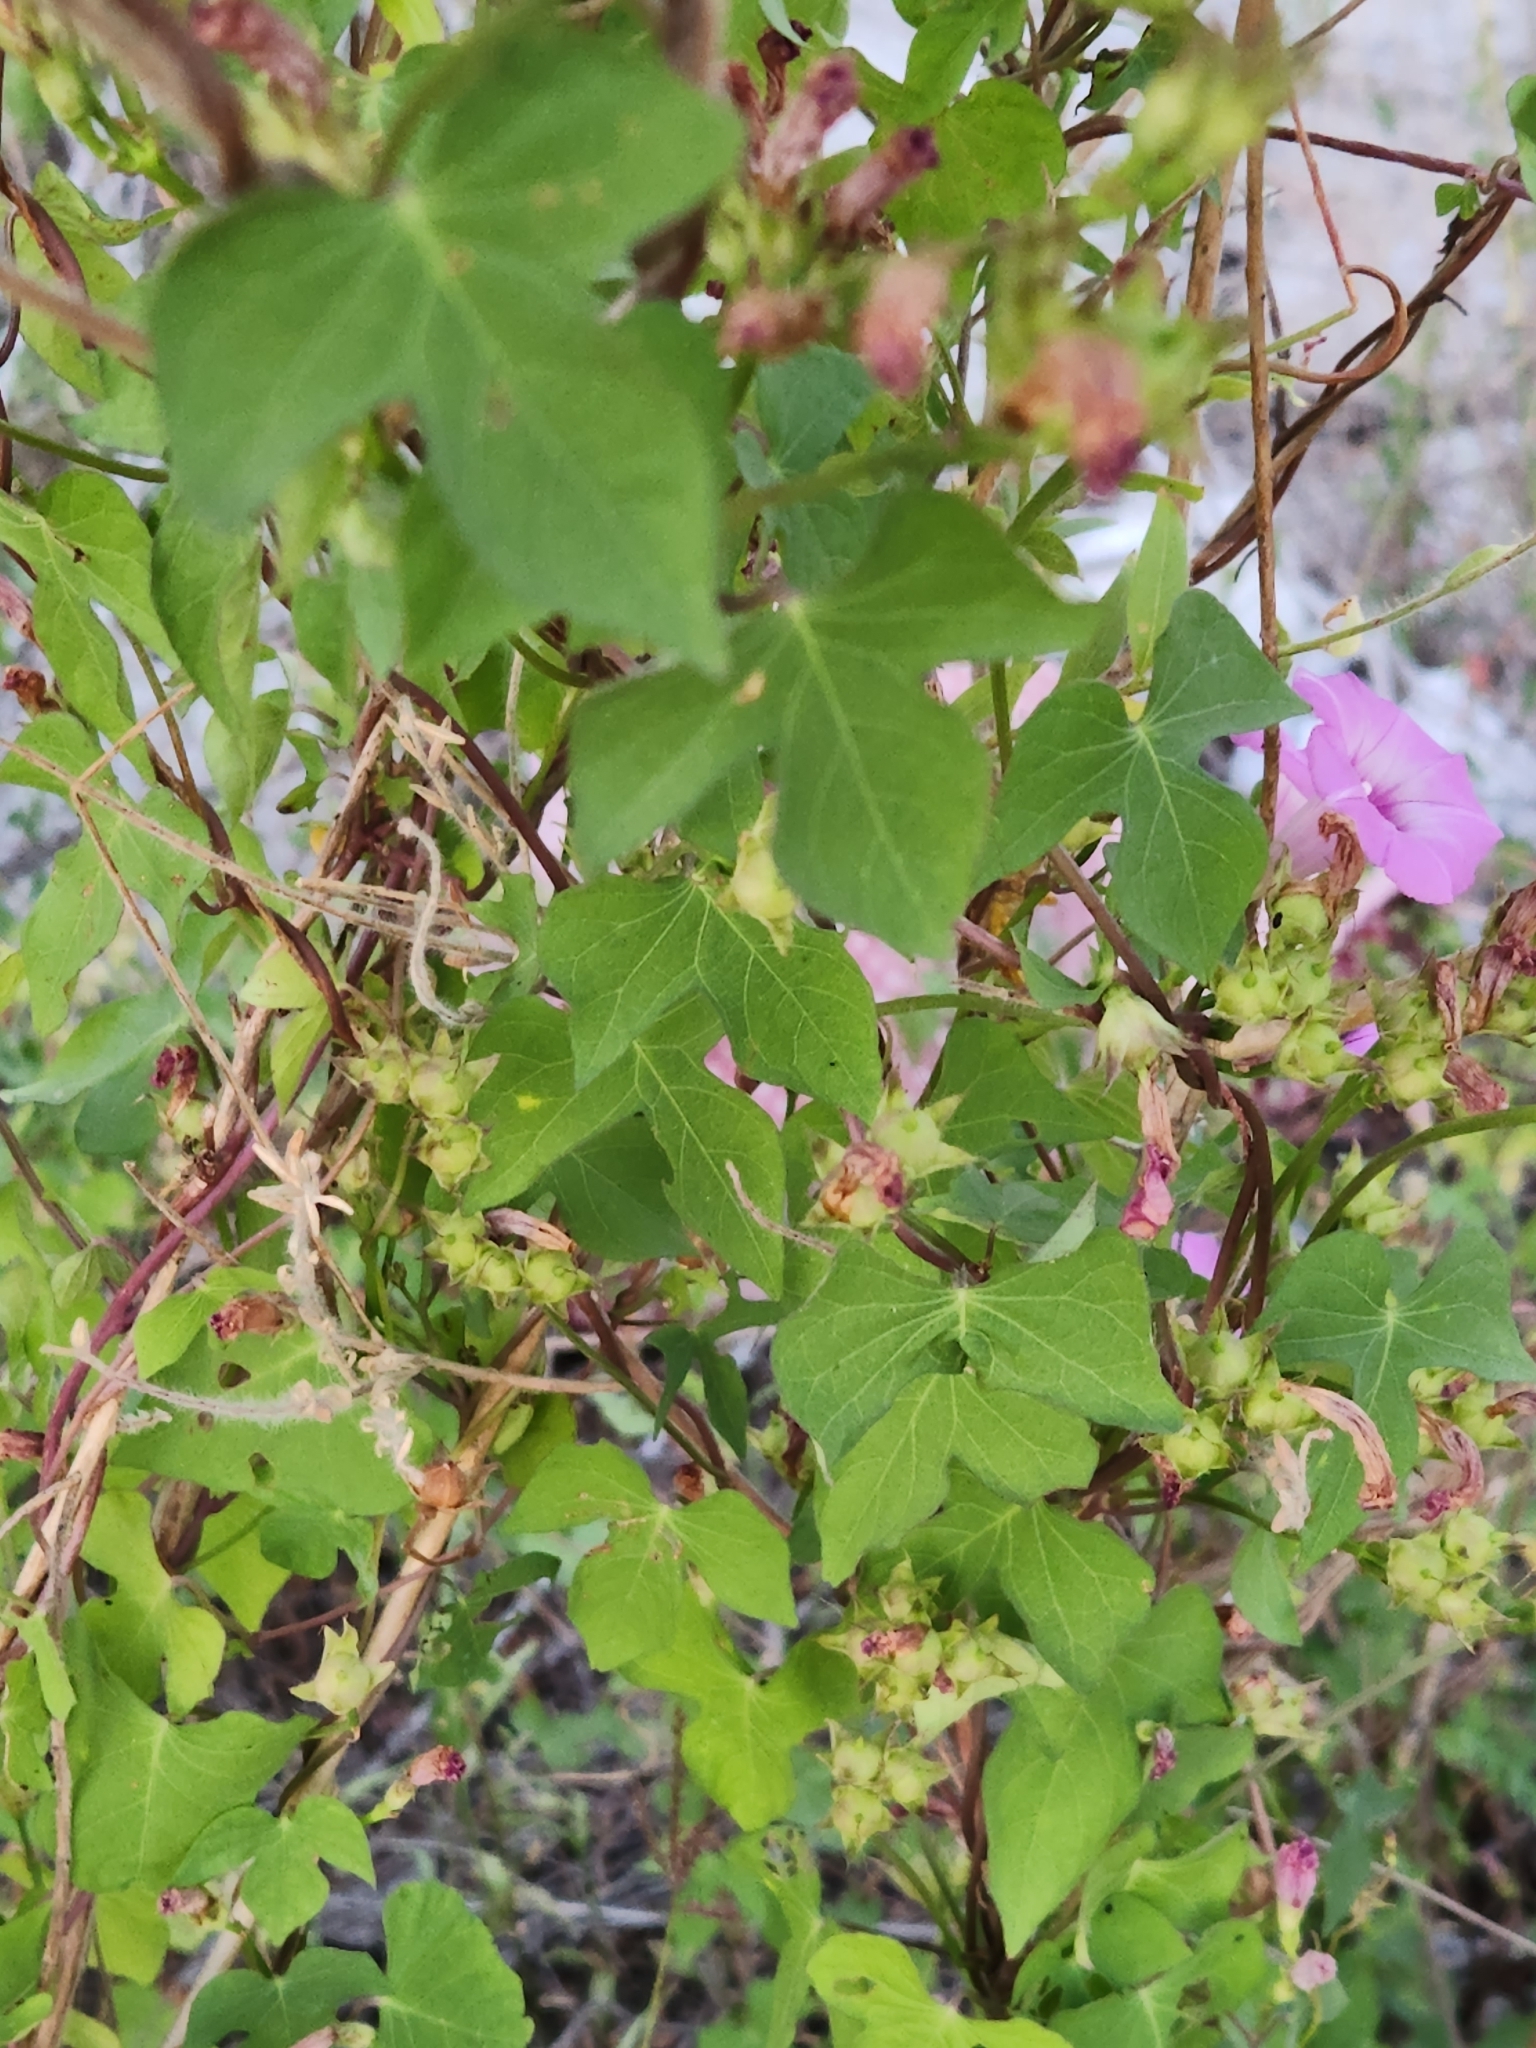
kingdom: Plantae
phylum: Tracheophyta
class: Magnoliopsida
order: Solanales
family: Convolvulaceae
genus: Ipomoea
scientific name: Ipomoea cordatotriloba
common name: Cotton morning glory
